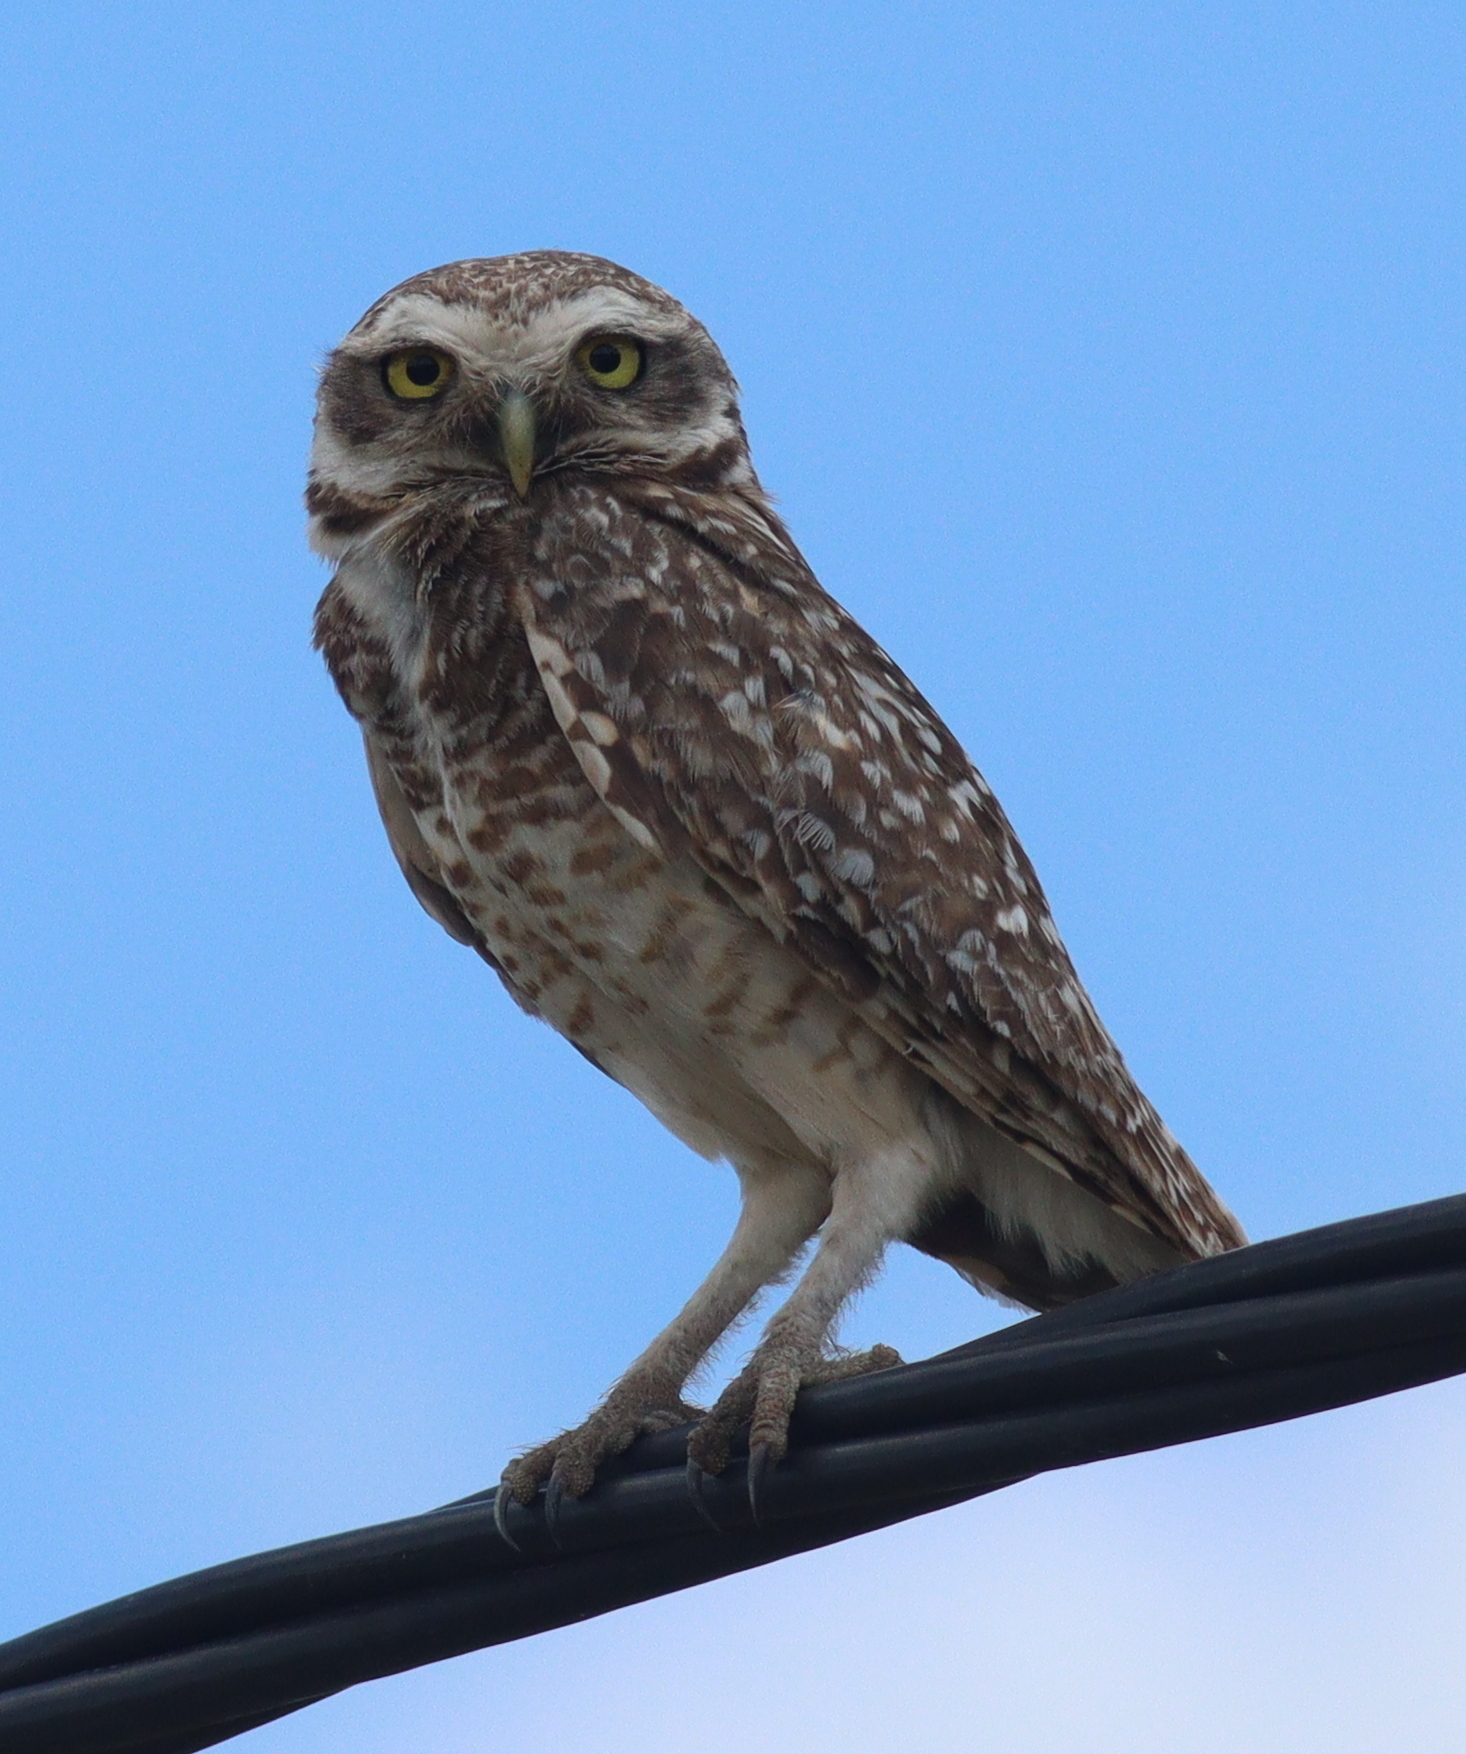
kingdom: Animalia
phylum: Chordata
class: Aves
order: Strigiformes
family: Strigidae
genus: Athene
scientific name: Athene cunicularia
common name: Burrowing owl
